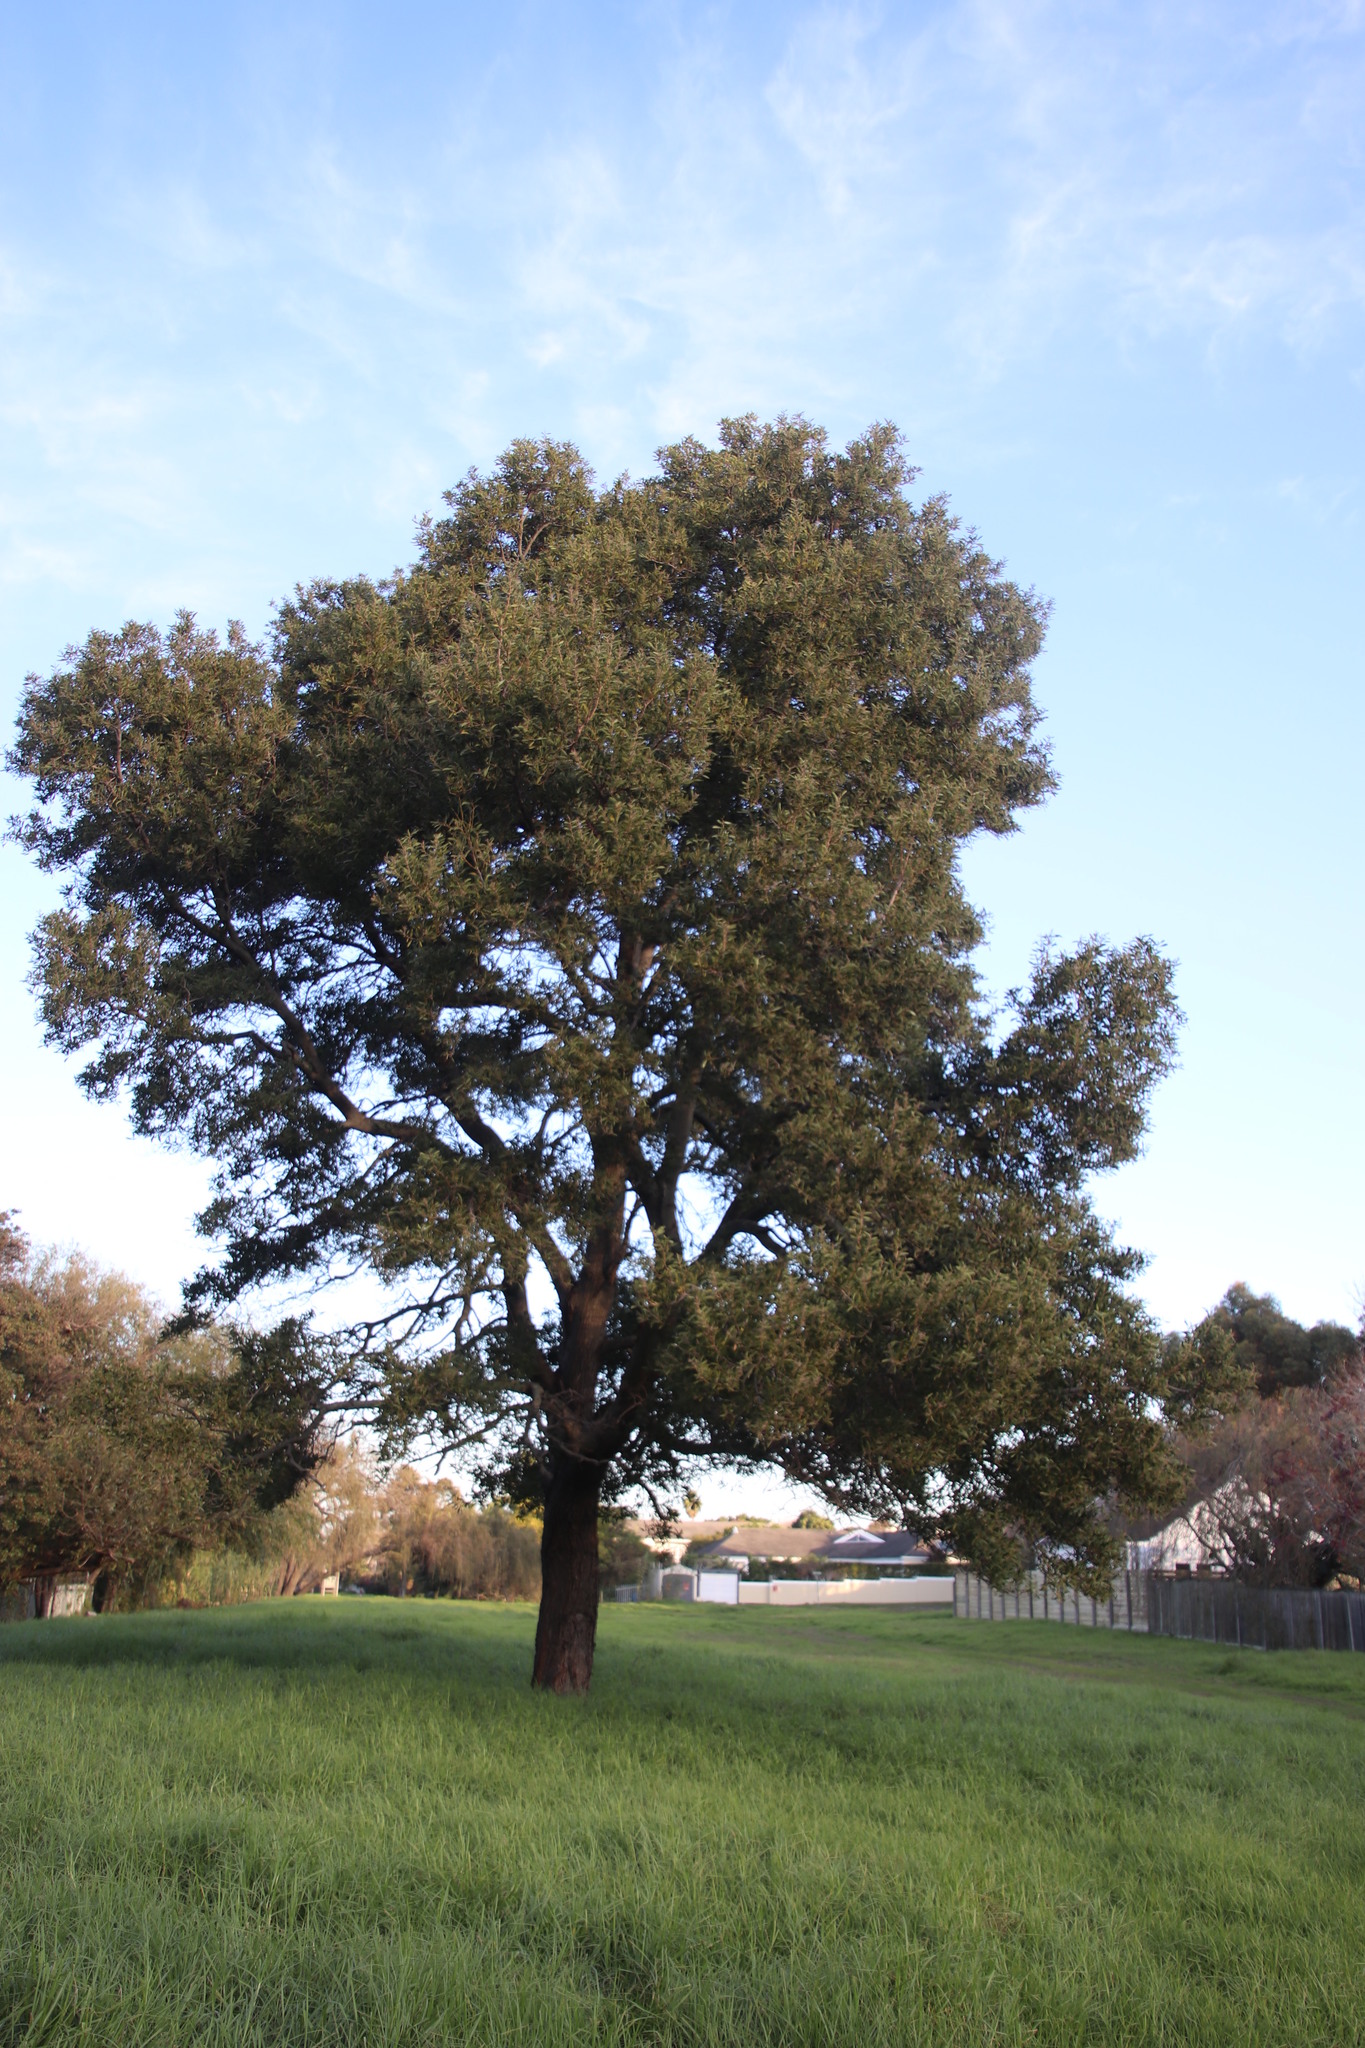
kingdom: Plantae
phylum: Tracheophyta
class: Magnoliopsida
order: Fabales
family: Fabaceae
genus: Acacia
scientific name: Acacia melanoxylon
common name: Blackwood
